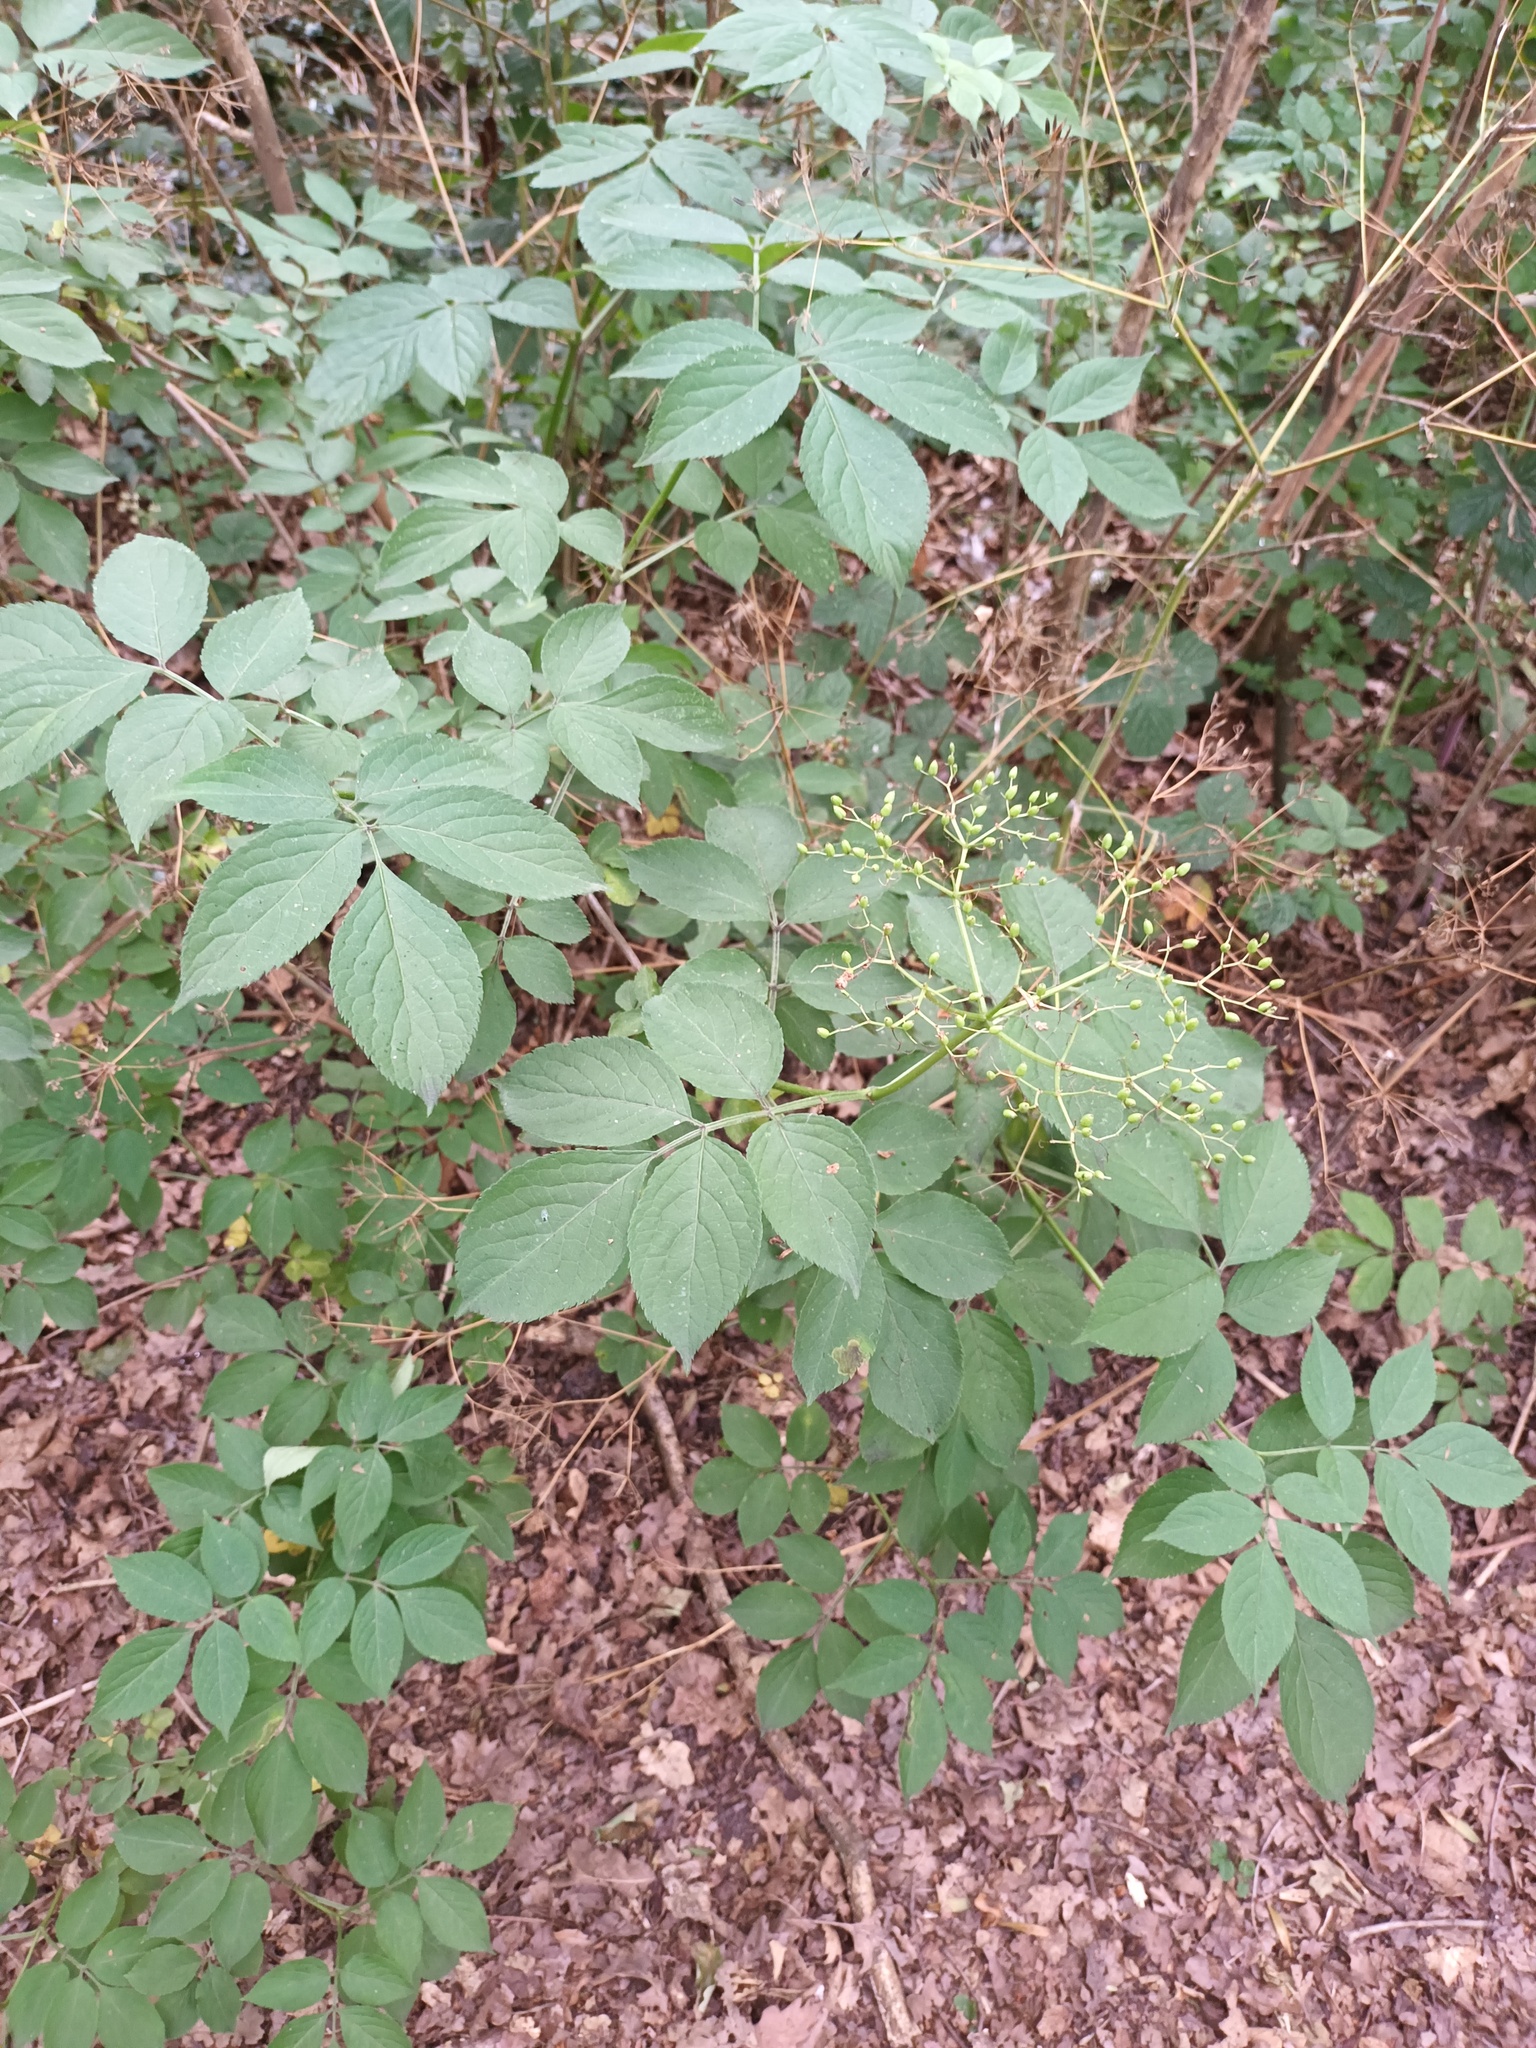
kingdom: Plantae
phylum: Tracheophyta
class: Magnoliopsida
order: Dipsacales
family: Viburnaceae
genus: Sambucus
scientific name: Sambucus nigra
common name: Elder
